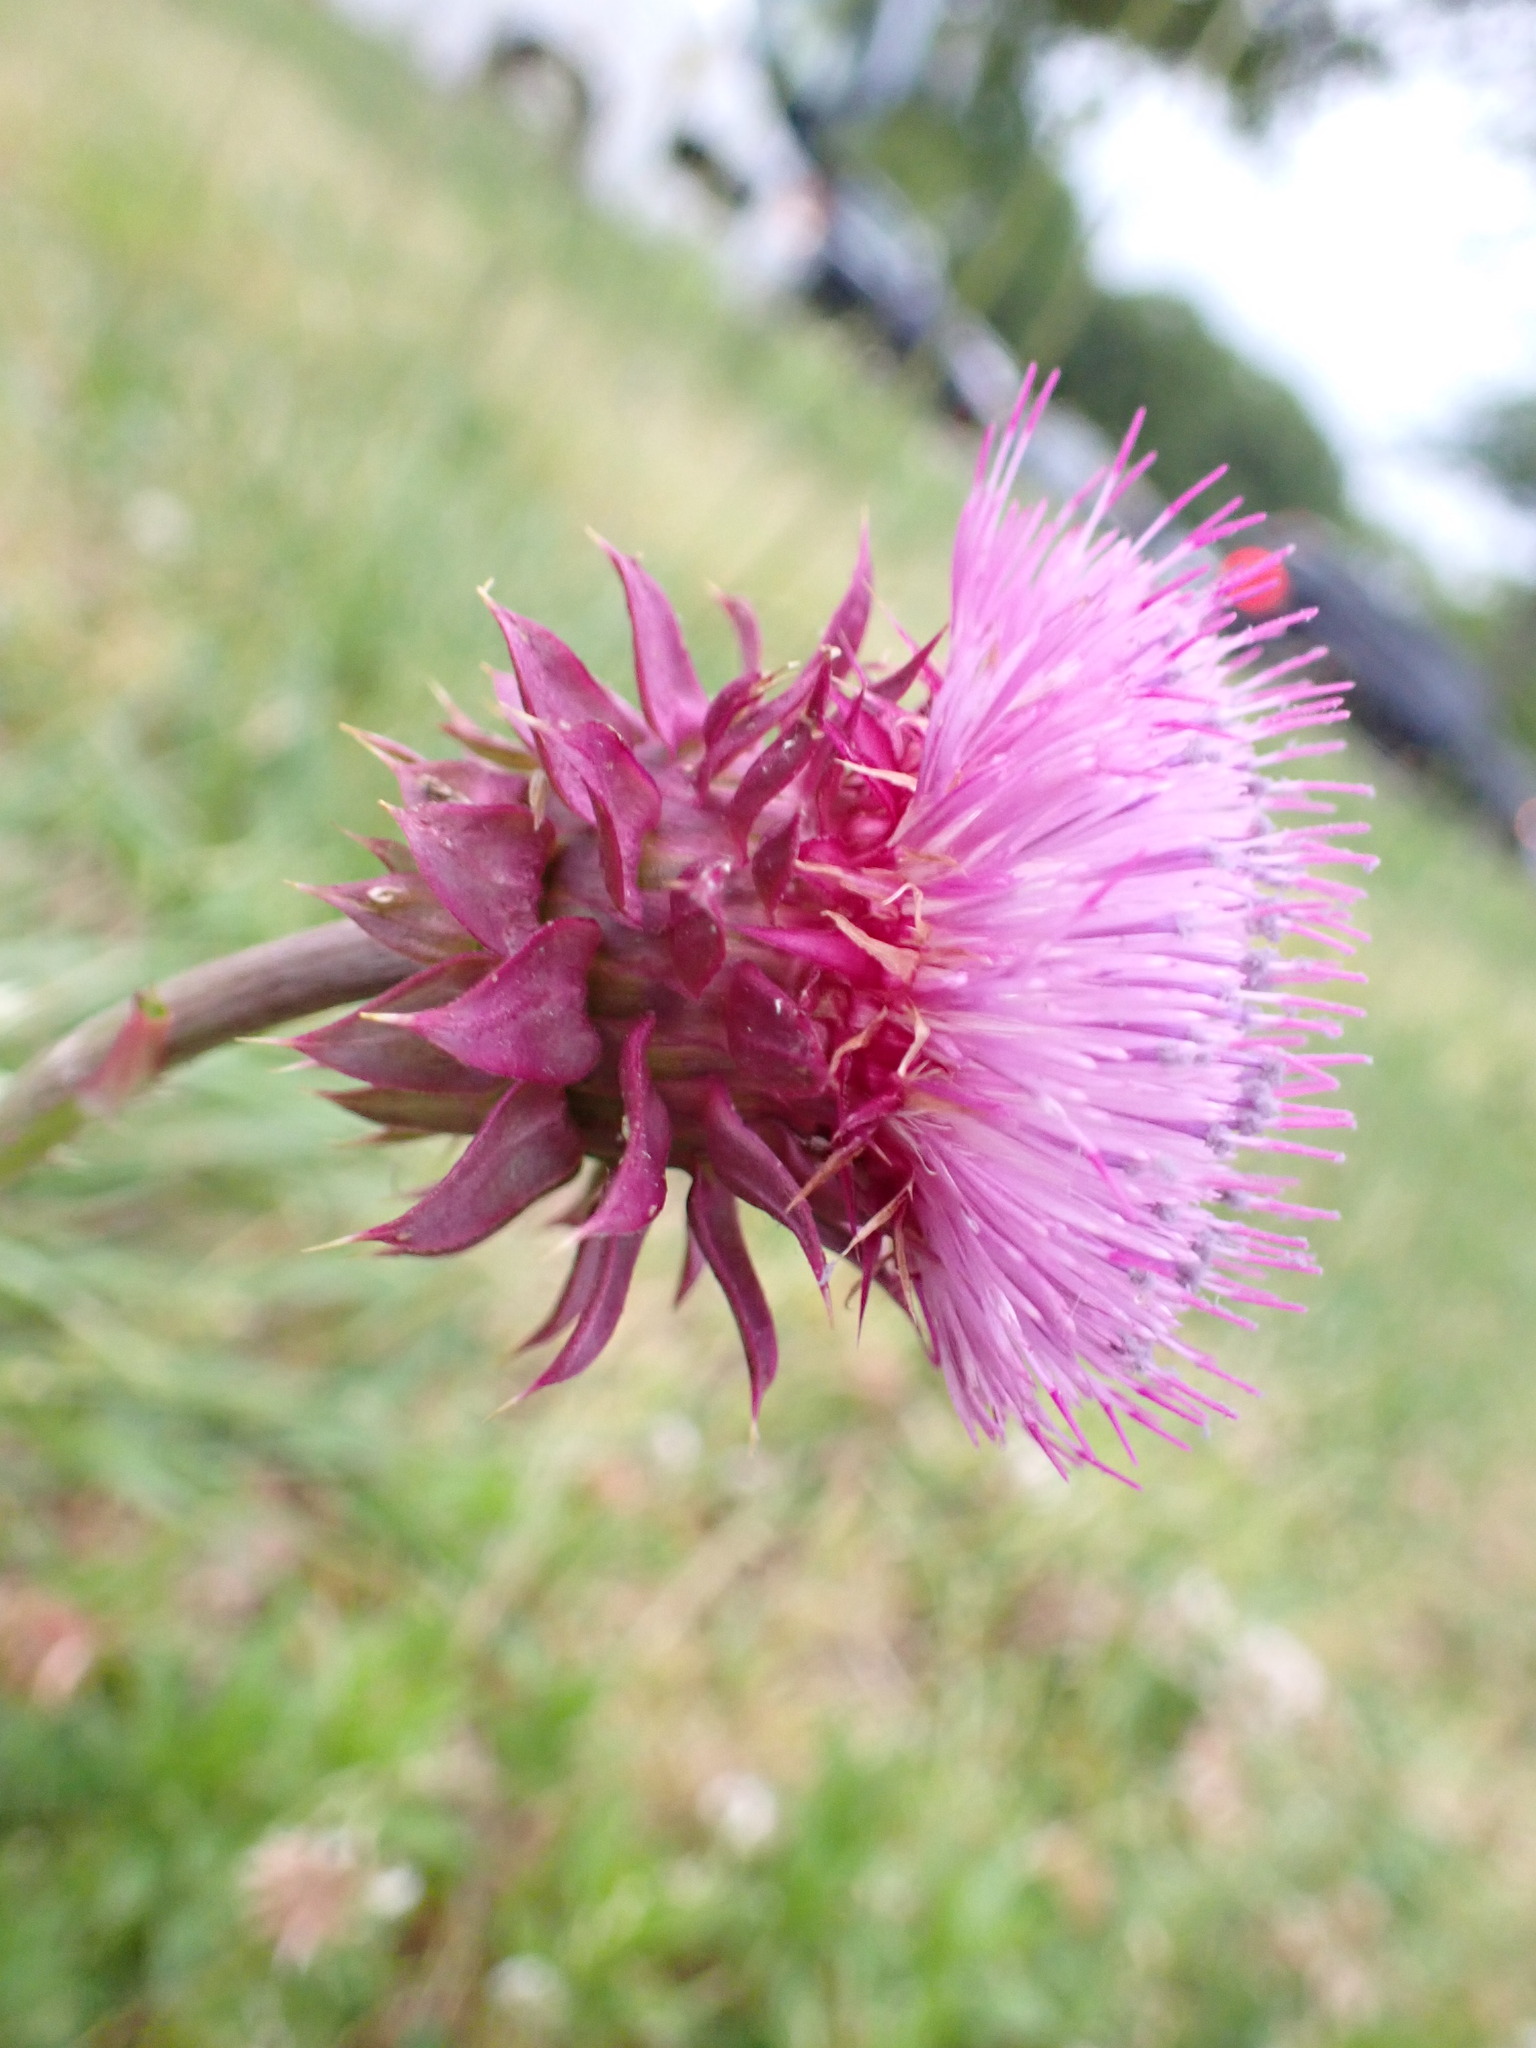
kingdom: Plantae
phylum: Tracheophyta
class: Magnoliopsida
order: Asterales
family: Asteraceae
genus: Carduus
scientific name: Carduus nutans
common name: Musk thistle
